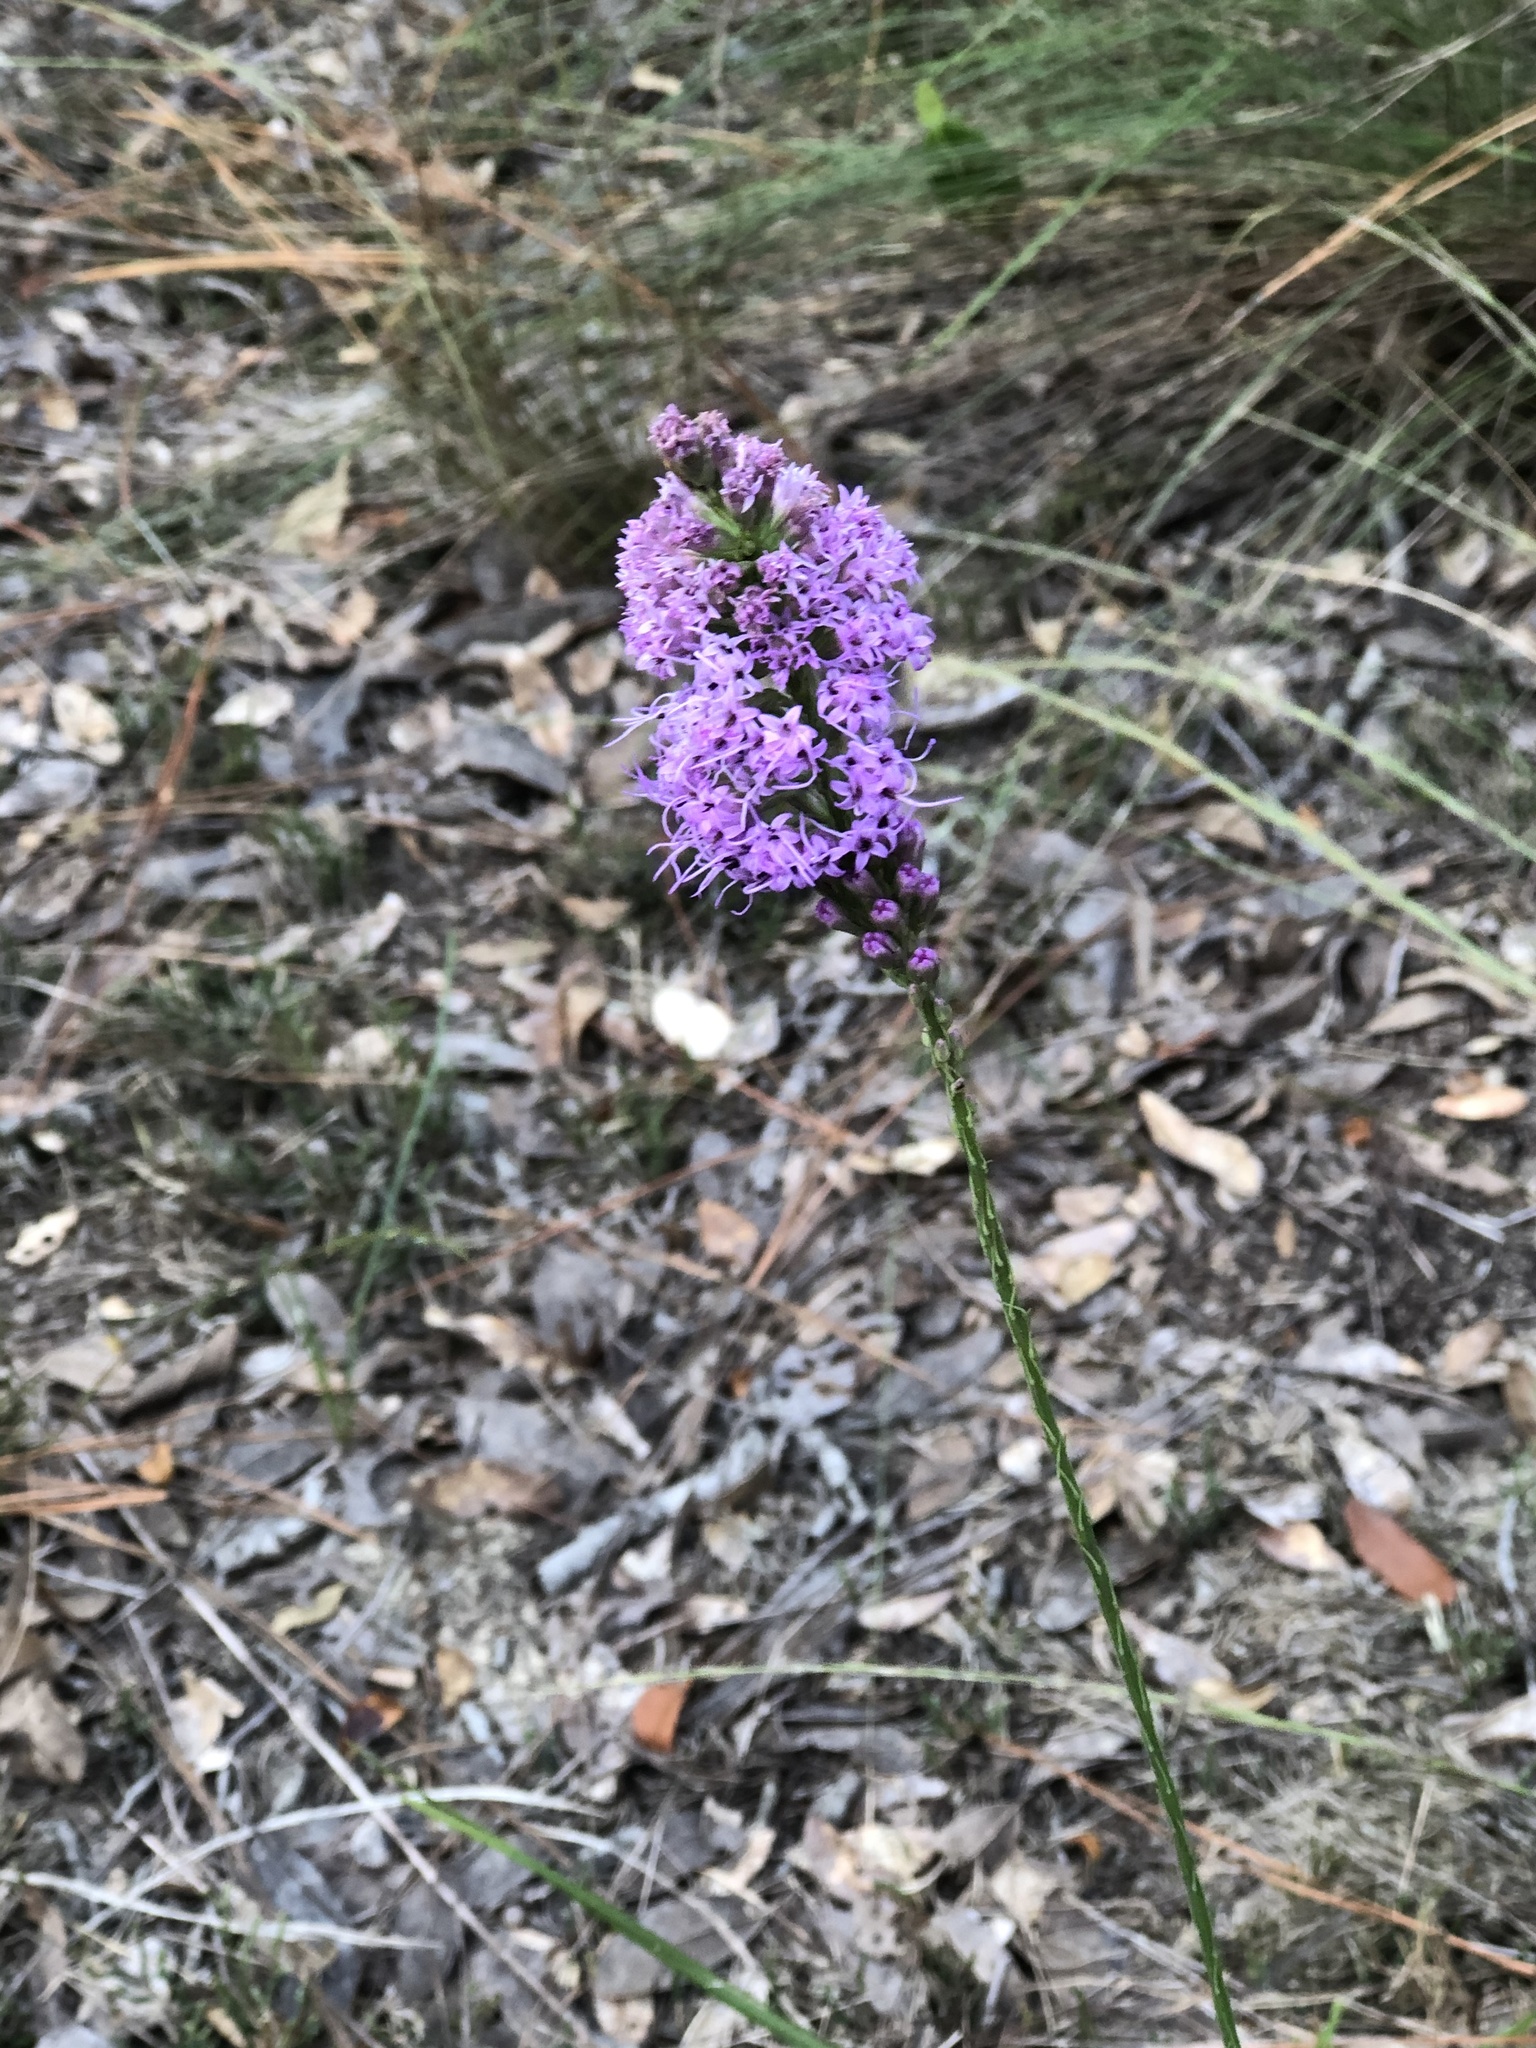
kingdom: Plantae
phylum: Tracheophyta
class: Magnoliopsida
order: Asterales
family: Asteraceae
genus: Liatris
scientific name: Liatris quadriflora
